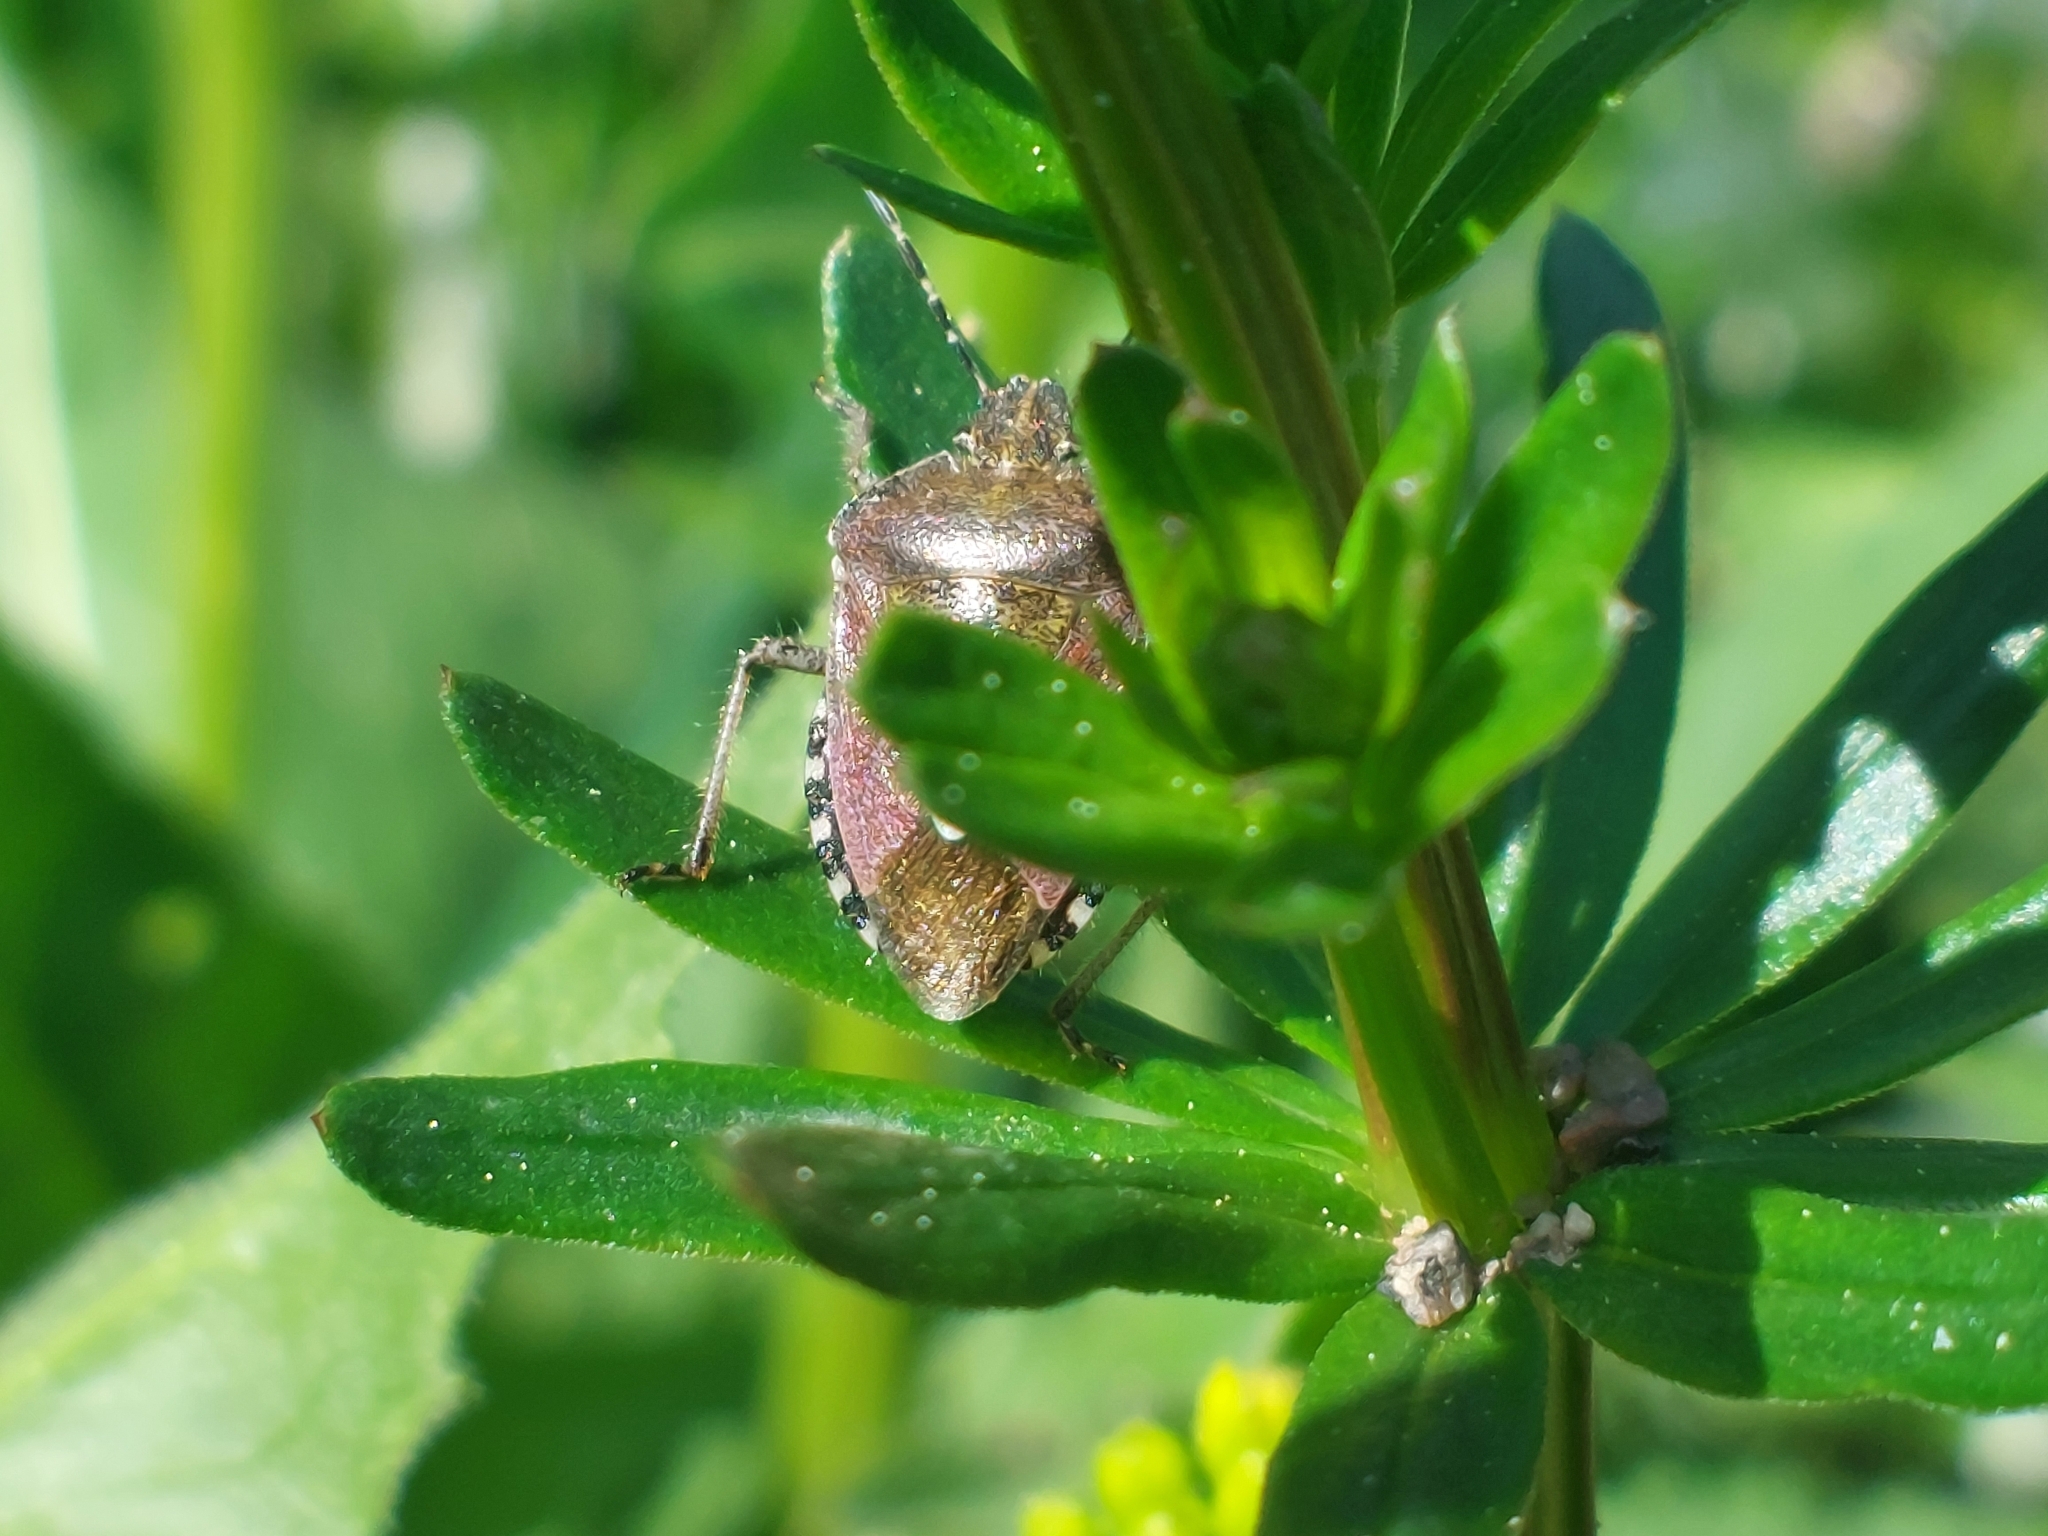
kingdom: Animalia
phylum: Arthropoda
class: Insecta
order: Hemiptera
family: Pentatomidae
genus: Dolycoris
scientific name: Dolycoris baccarum
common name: Sloe bug
